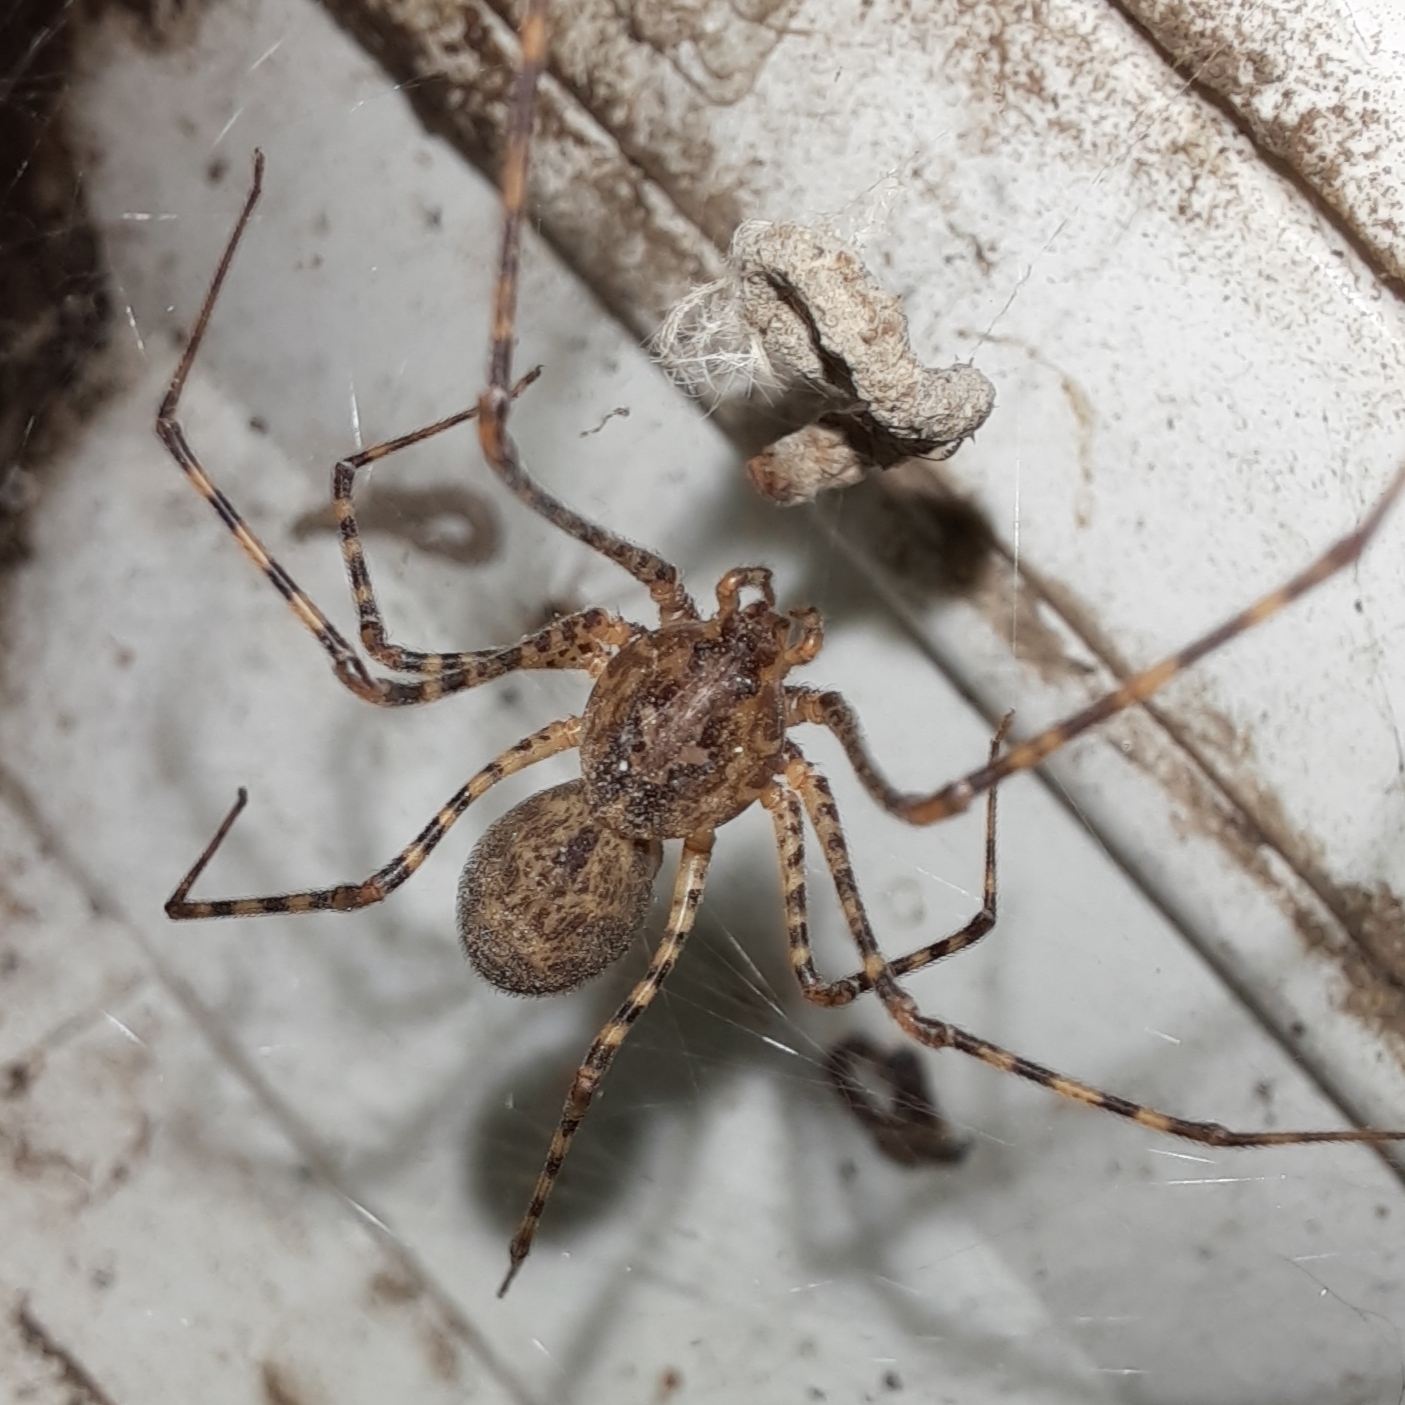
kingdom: Animalia
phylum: Arthropoda
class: Arachnida
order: Araneae
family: Scytodidae
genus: Scytodes
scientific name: Scytodes globula
